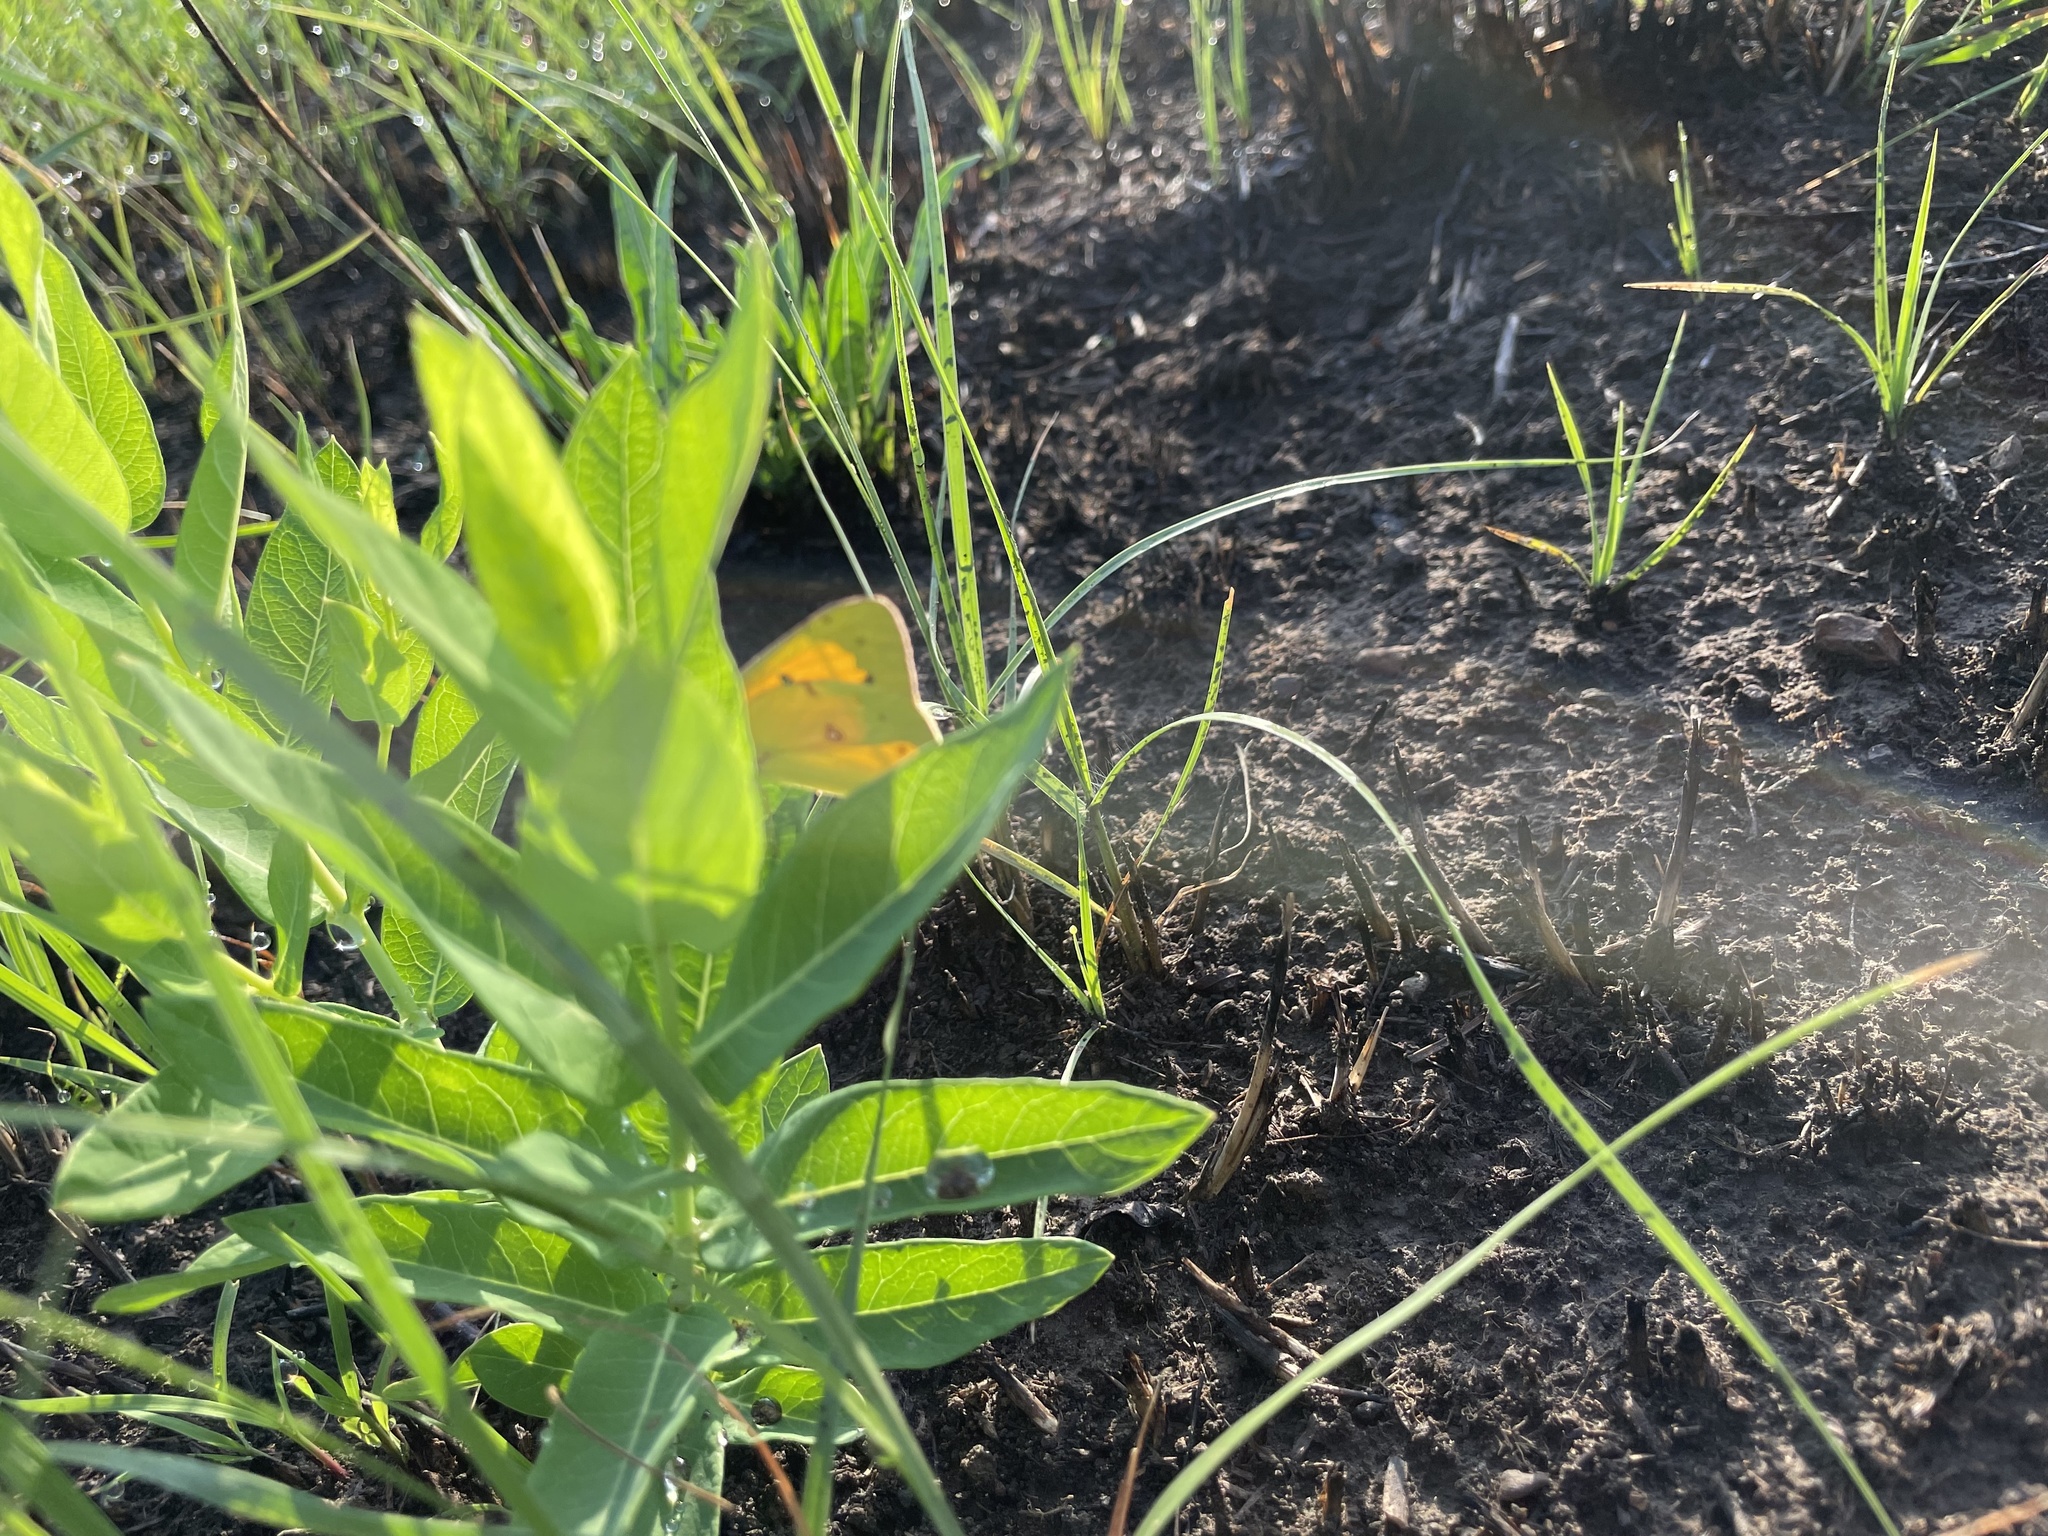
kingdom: Animalia
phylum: Arthropoda
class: Insecta
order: Lepidoptera
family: Pieridae
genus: Colias
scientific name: Colias eurytheme
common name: Alfalfa butterfly
